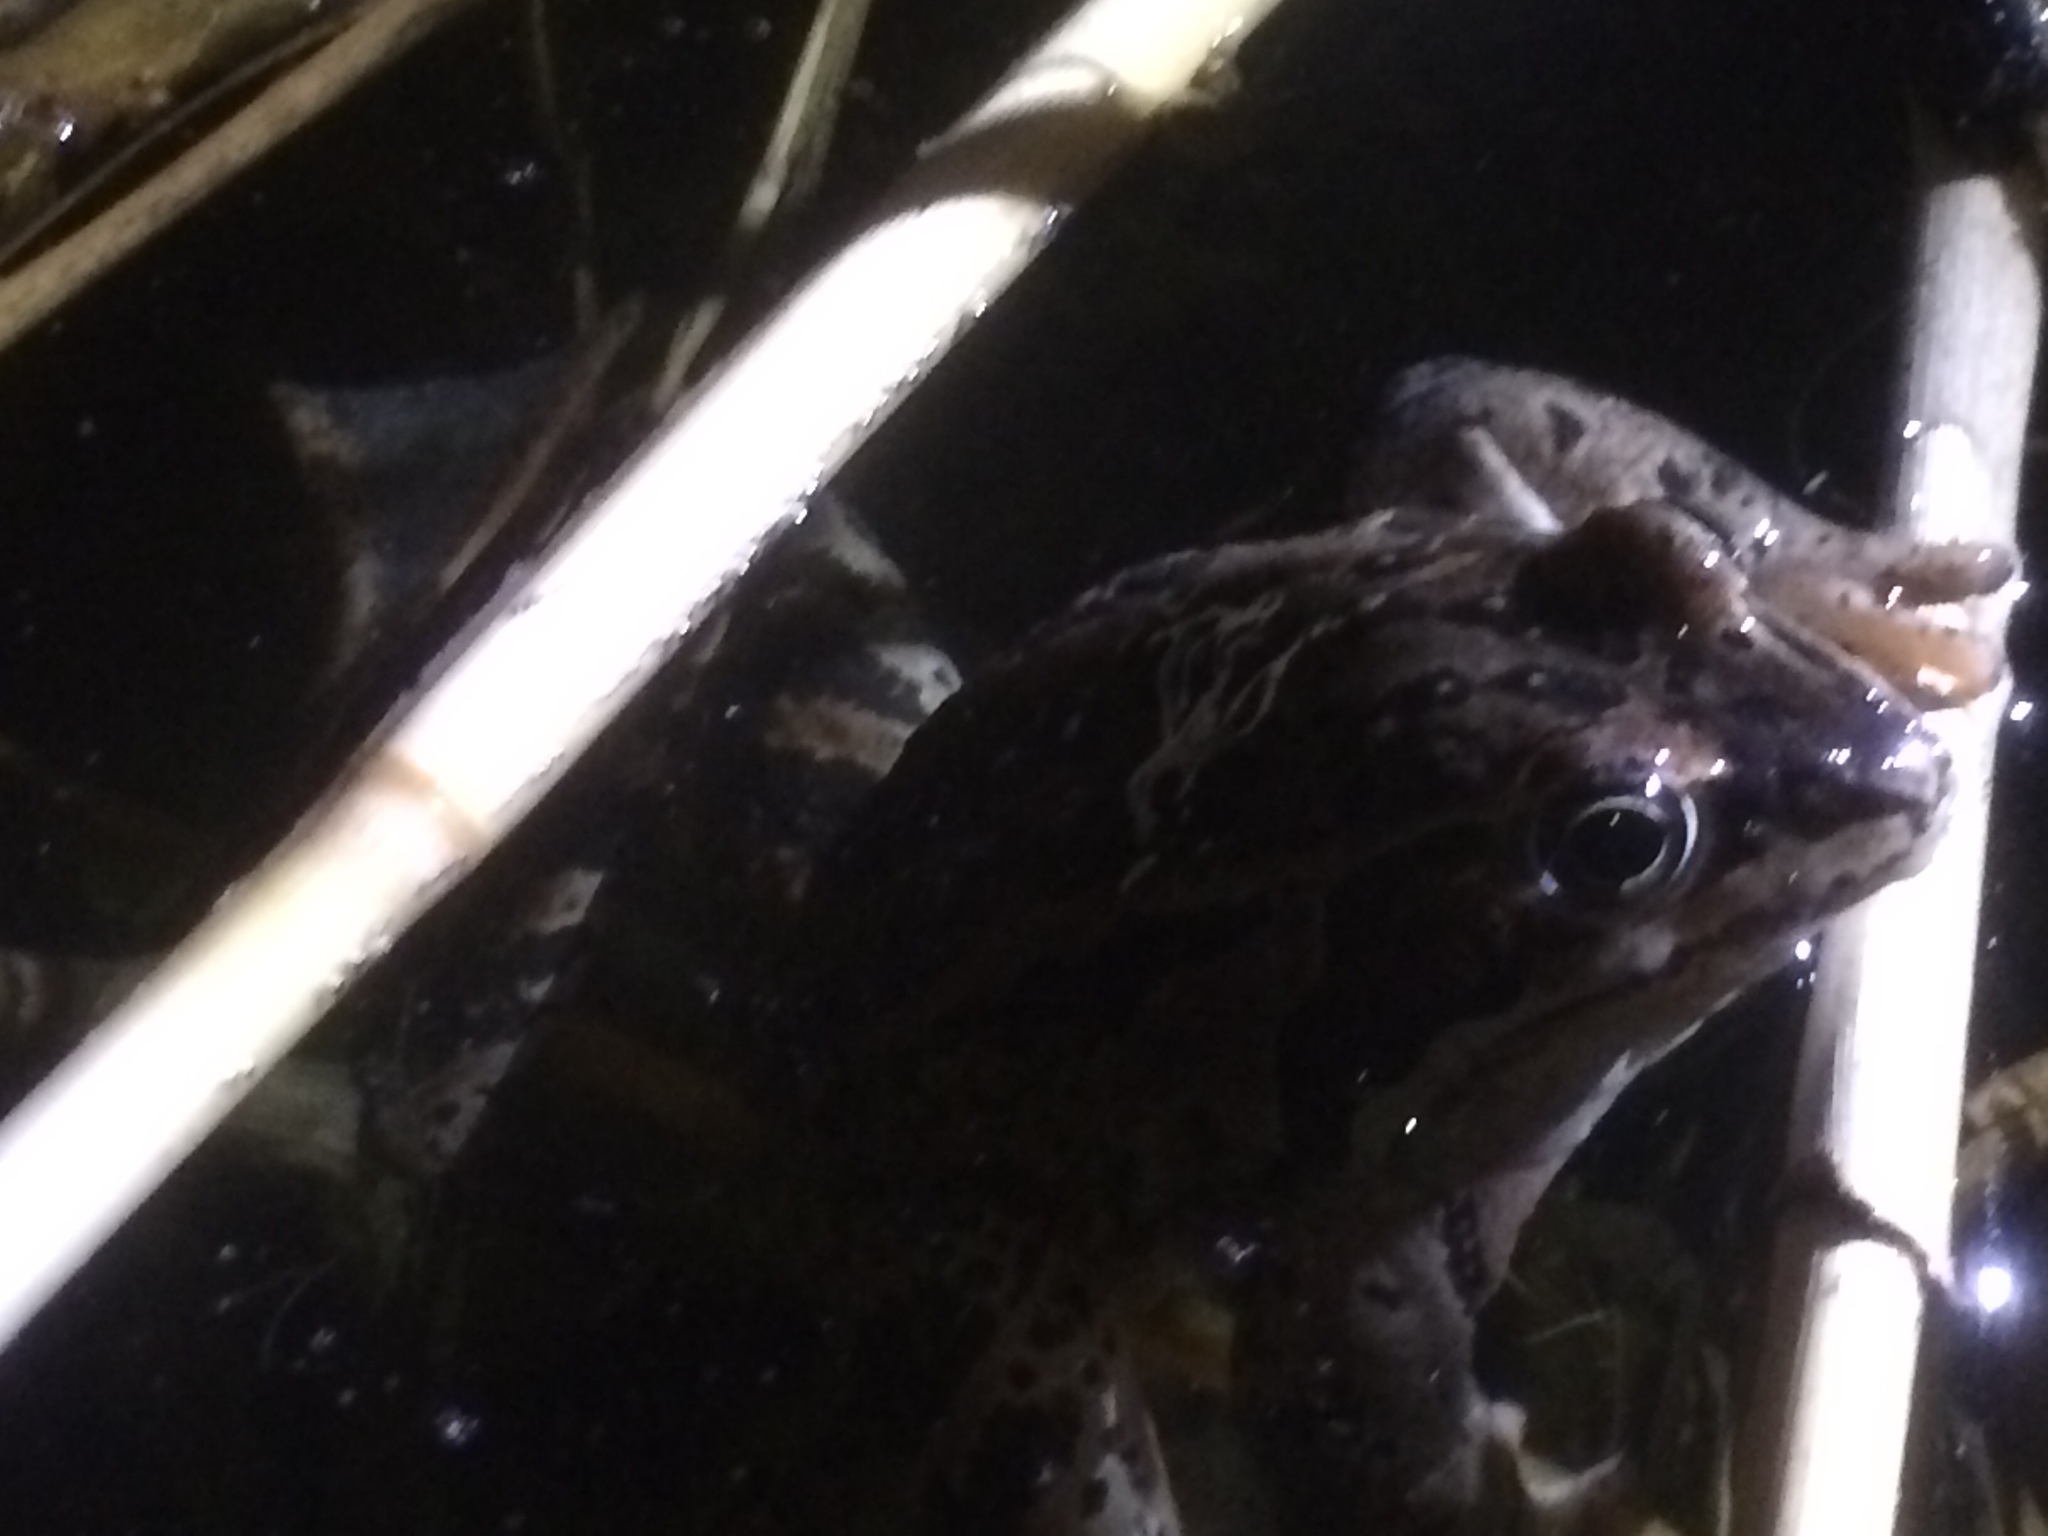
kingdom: Animalia
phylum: Chordata
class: Amphibia
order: Anura
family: Ranidae
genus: Rana
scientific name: Rana macrocnemis
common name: Banded frog
